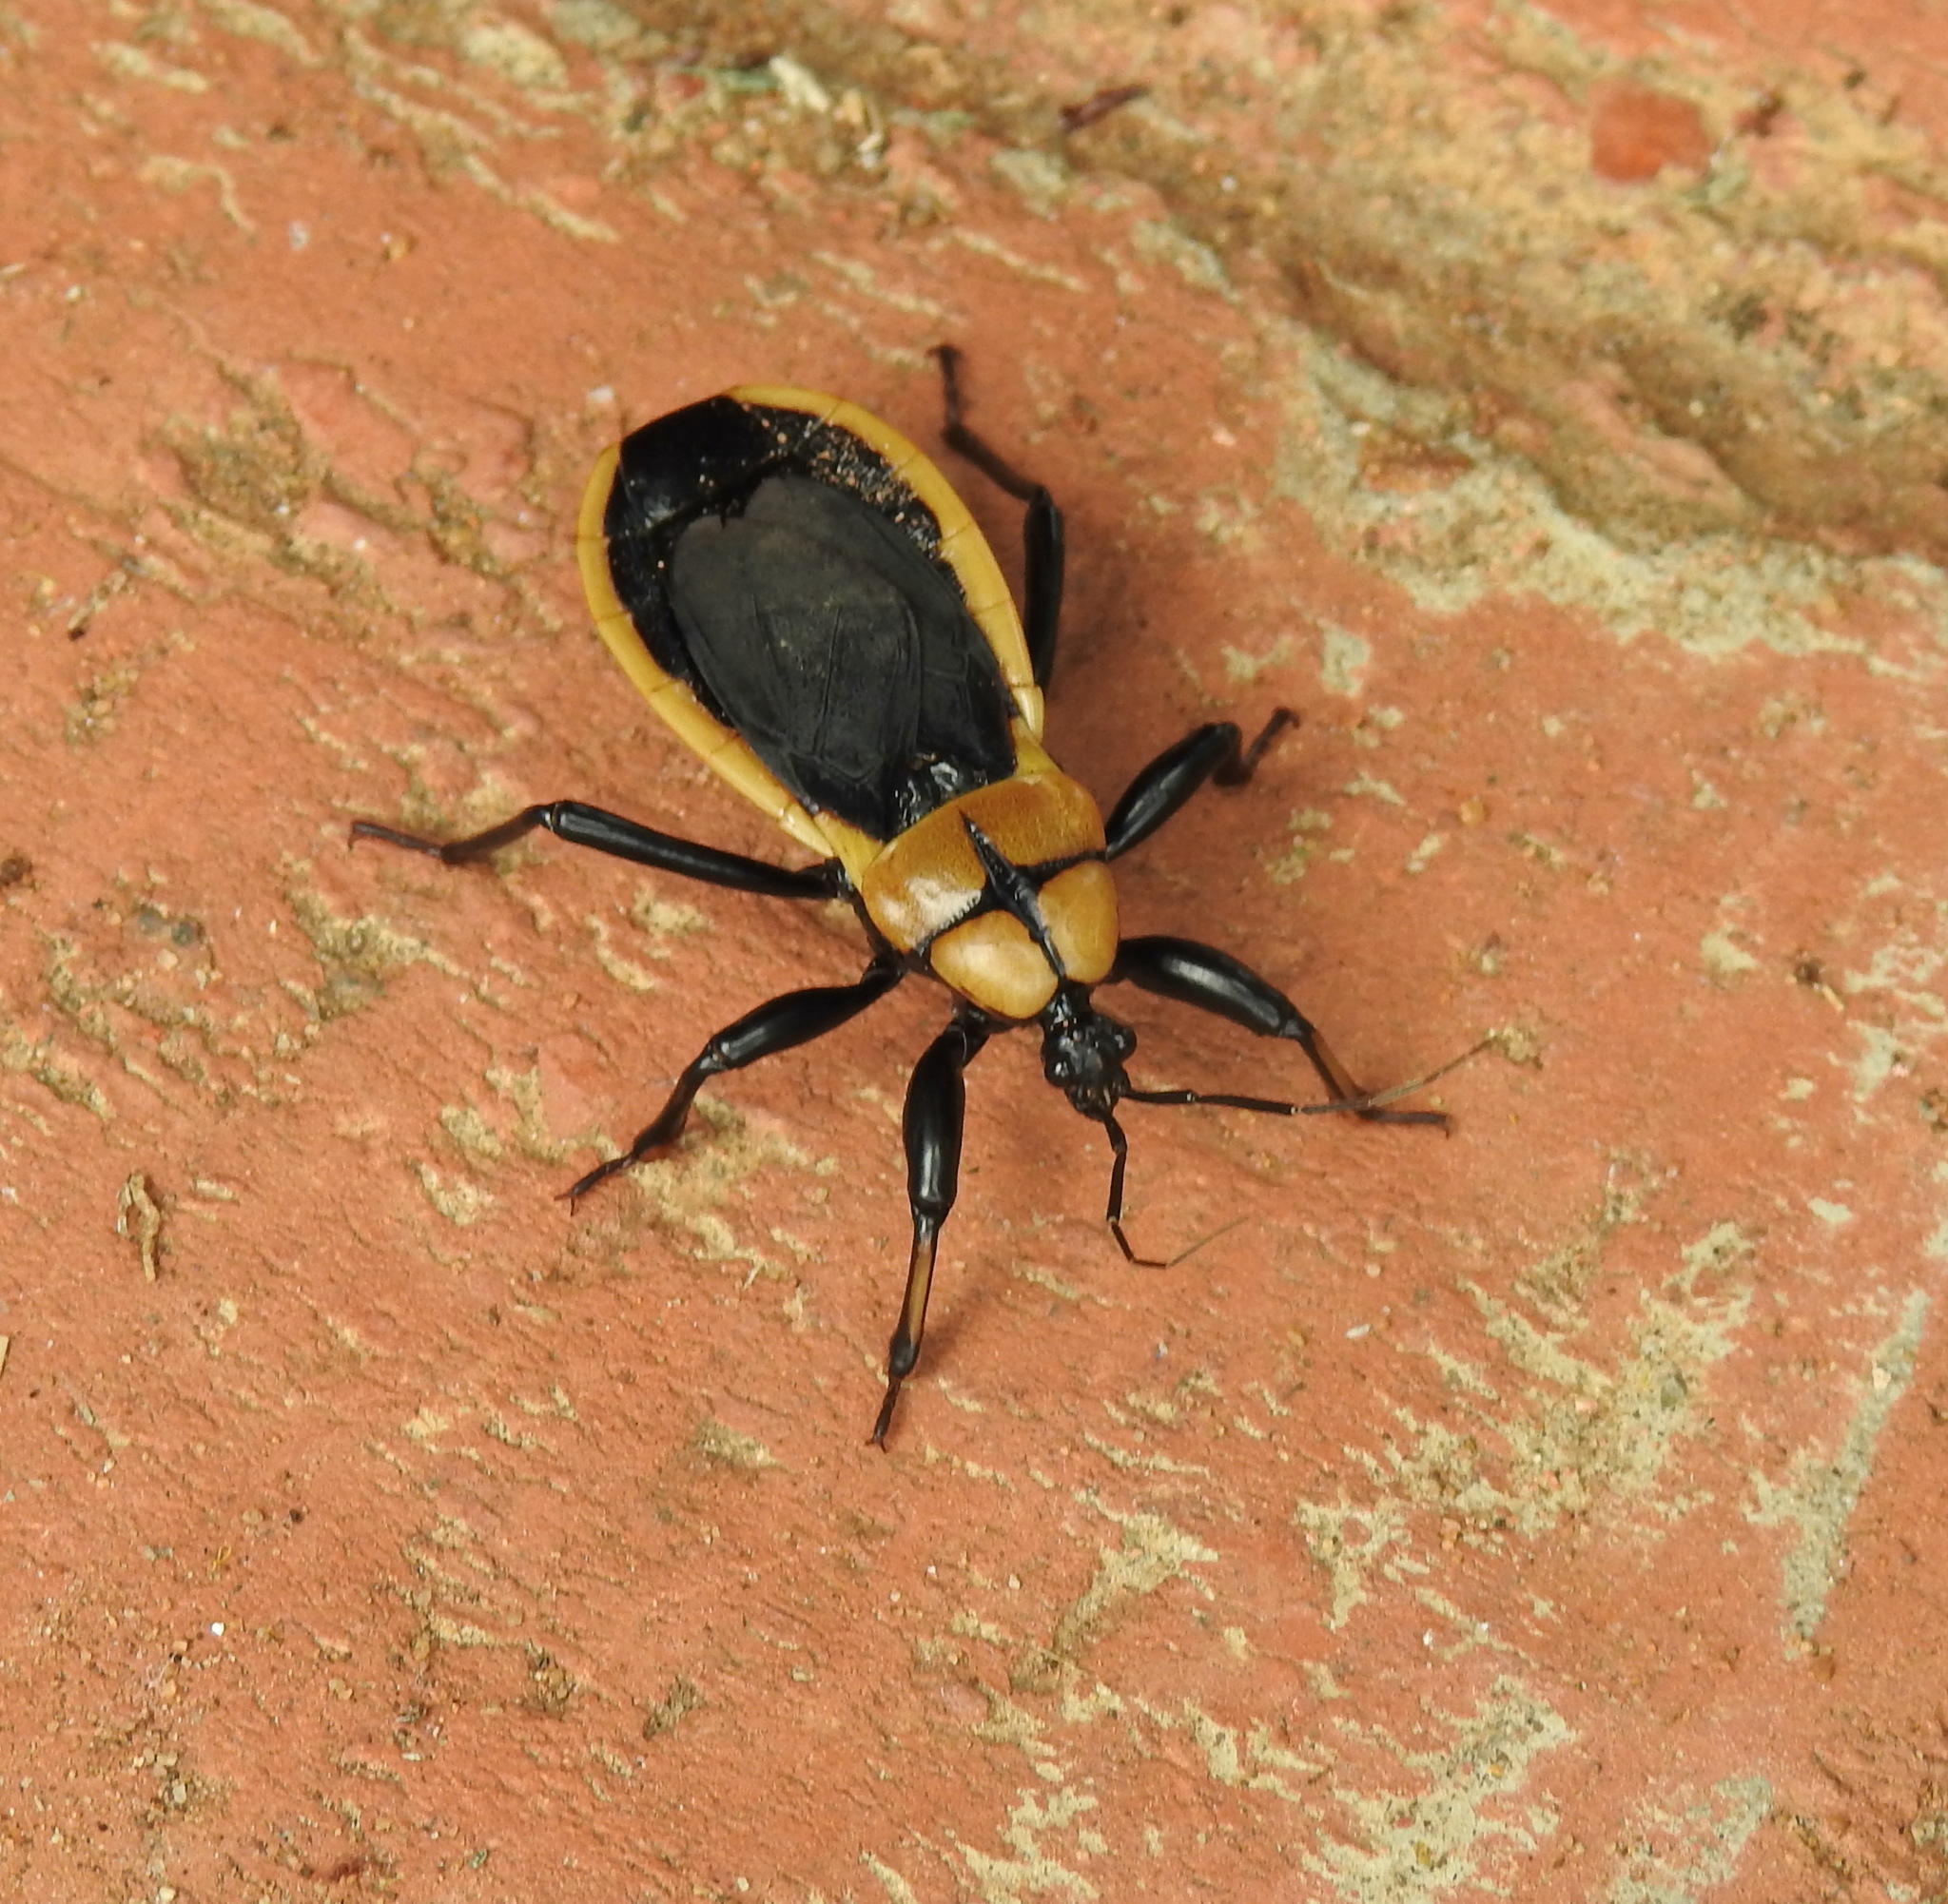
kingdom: Animalia
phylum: Arthropoda
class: Insecta
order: Hemiptera
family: Reduviidae
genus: Ectrichodia
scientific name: Ectrichodia crux
